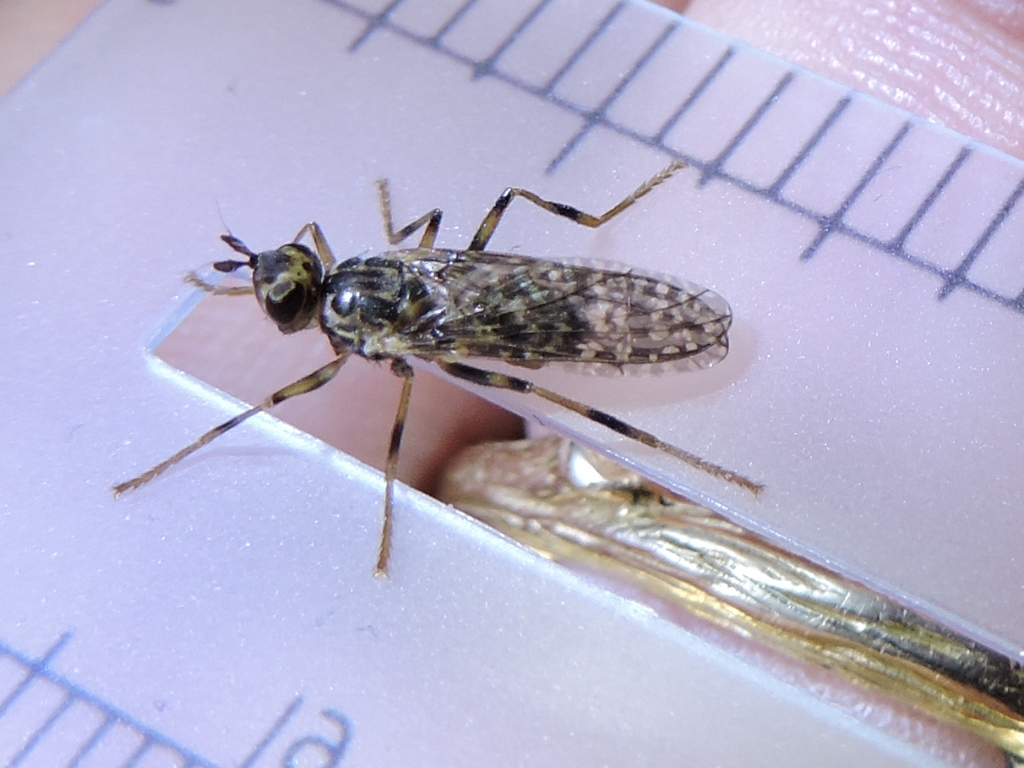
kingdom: Animalia
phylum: Arthropoda
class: Insecta
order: Diptera
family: Pyrgotidae
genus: Boreothrinax
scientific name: Boreothrinax
